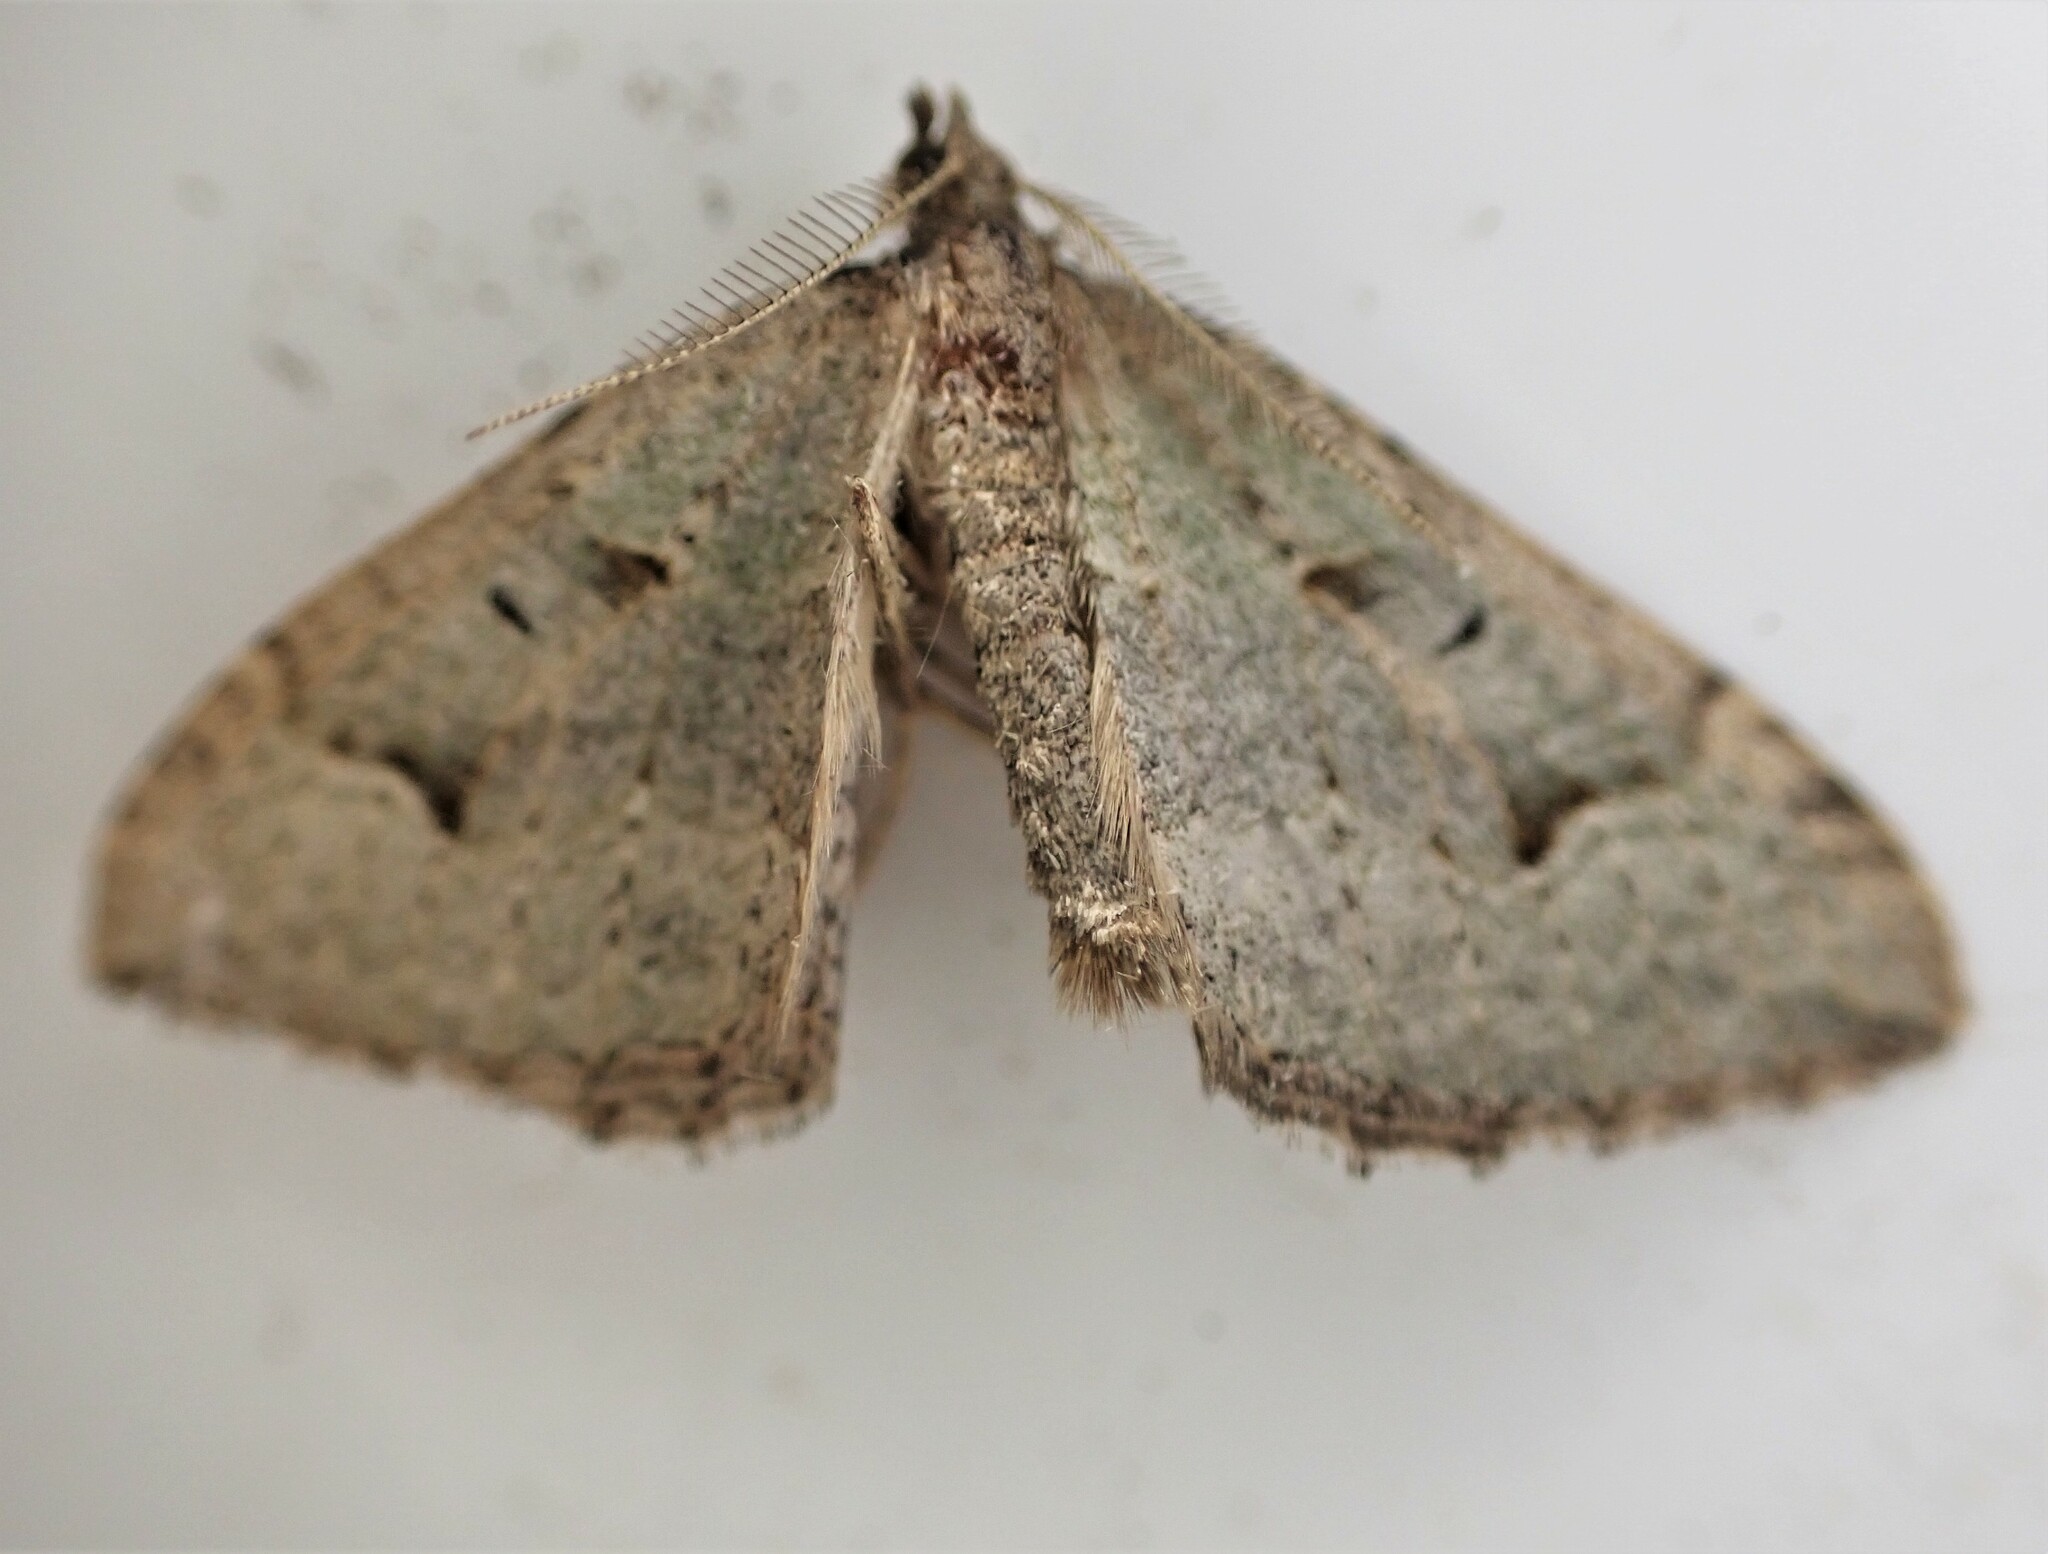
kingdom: Animalia
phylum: Arthropoda
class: Insecta
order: Lepidoptera
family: Geometridae
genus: Epyaxa
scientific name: Epyaxa rosearia
